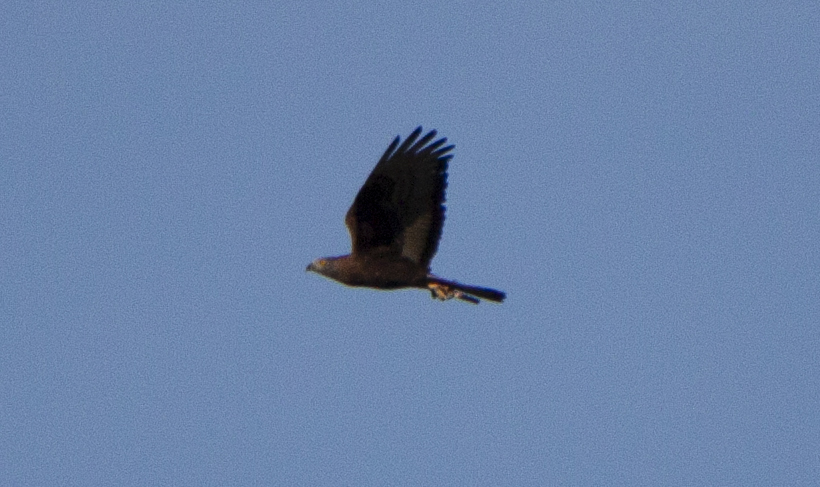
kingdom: Animalia
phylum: Chordata
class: Aves
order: Accipitriformes
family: Accipitridae
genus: Pernis
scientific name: Pernis apivorus
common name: European honey buzzard
